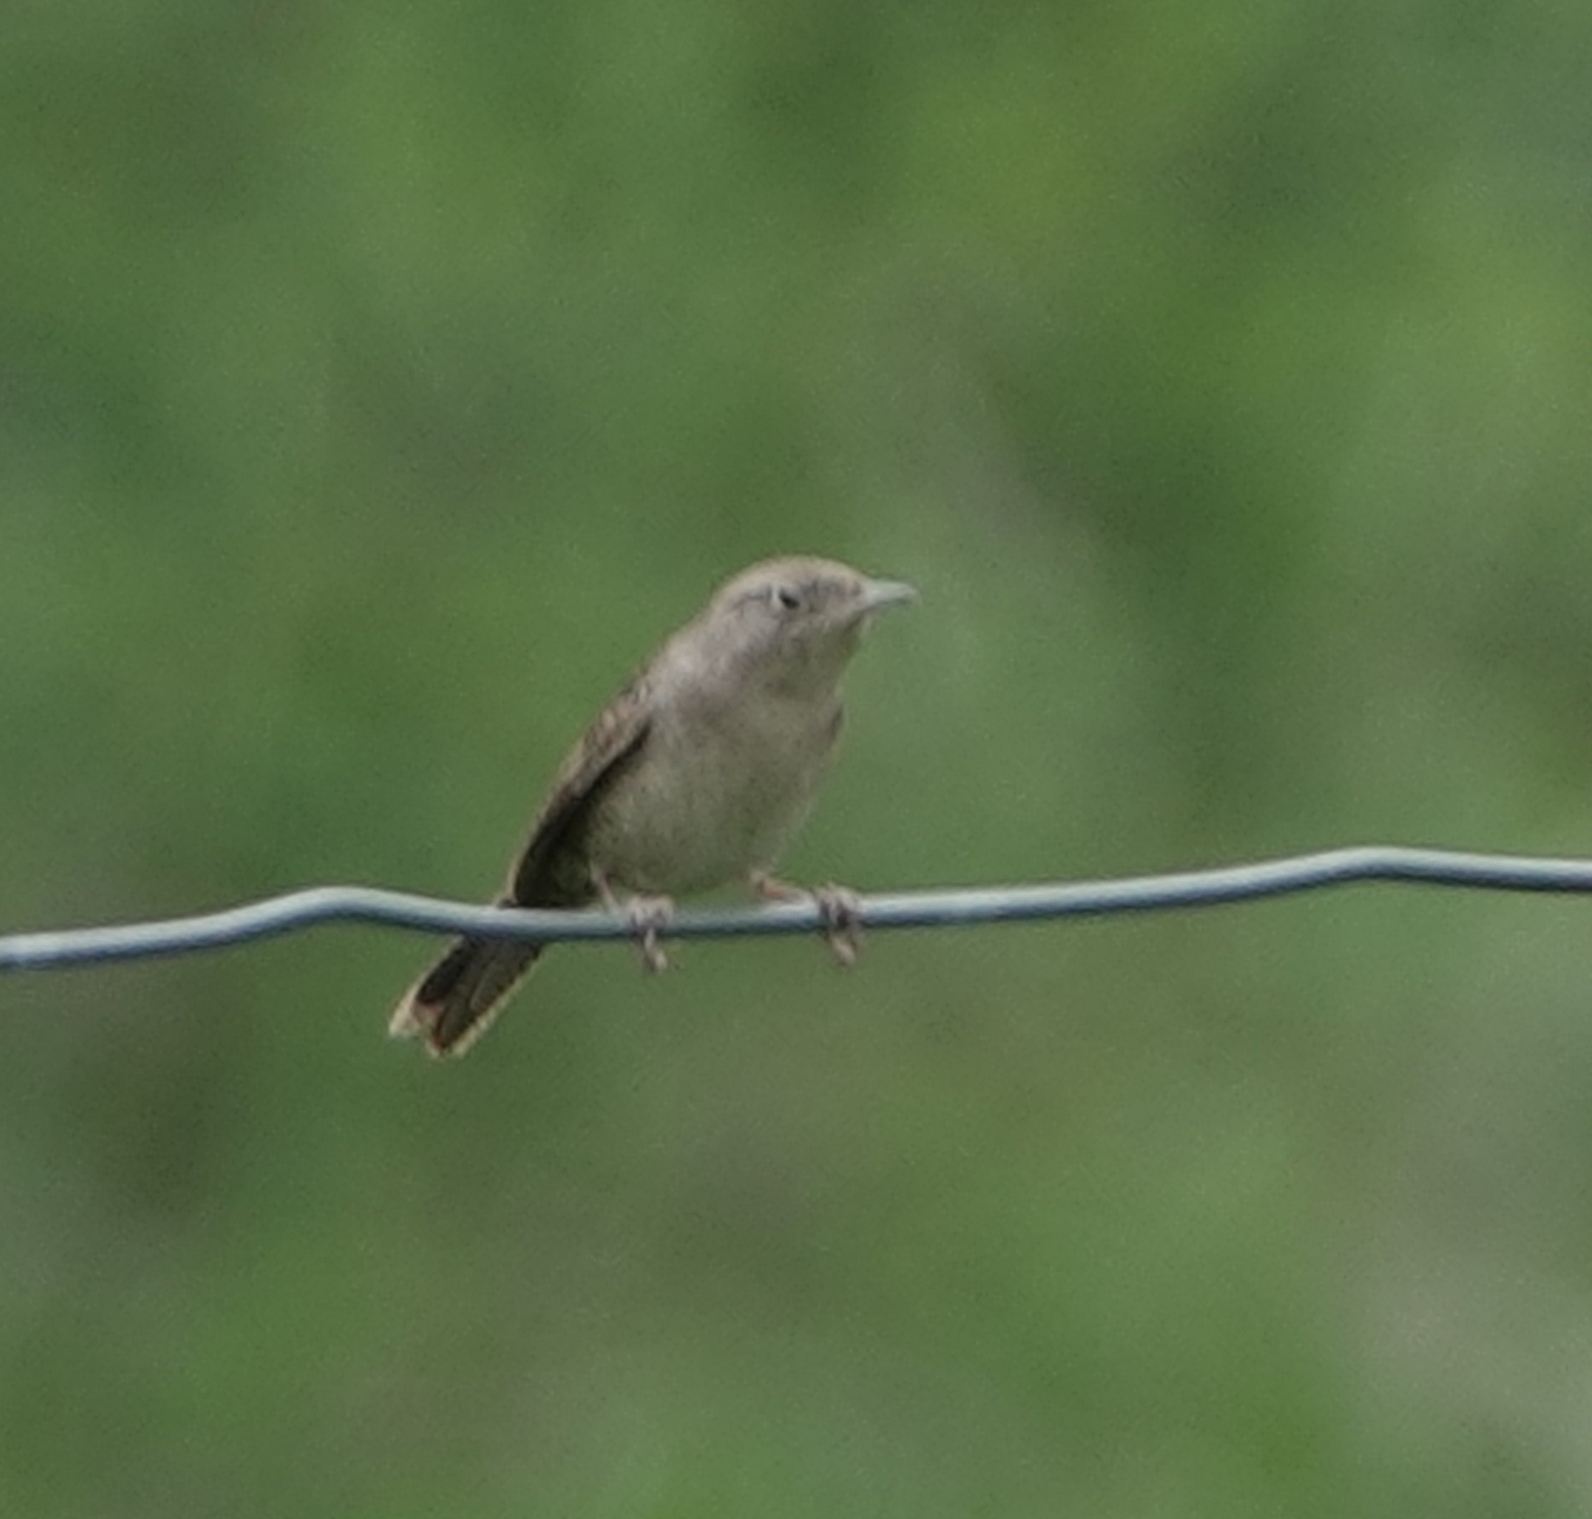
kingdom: Animalia
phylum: Chordata
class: Aves
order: Passeriformes
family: Troglodytidae
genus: Troglodytes
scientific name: Troglodytes aedon
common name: House wren
